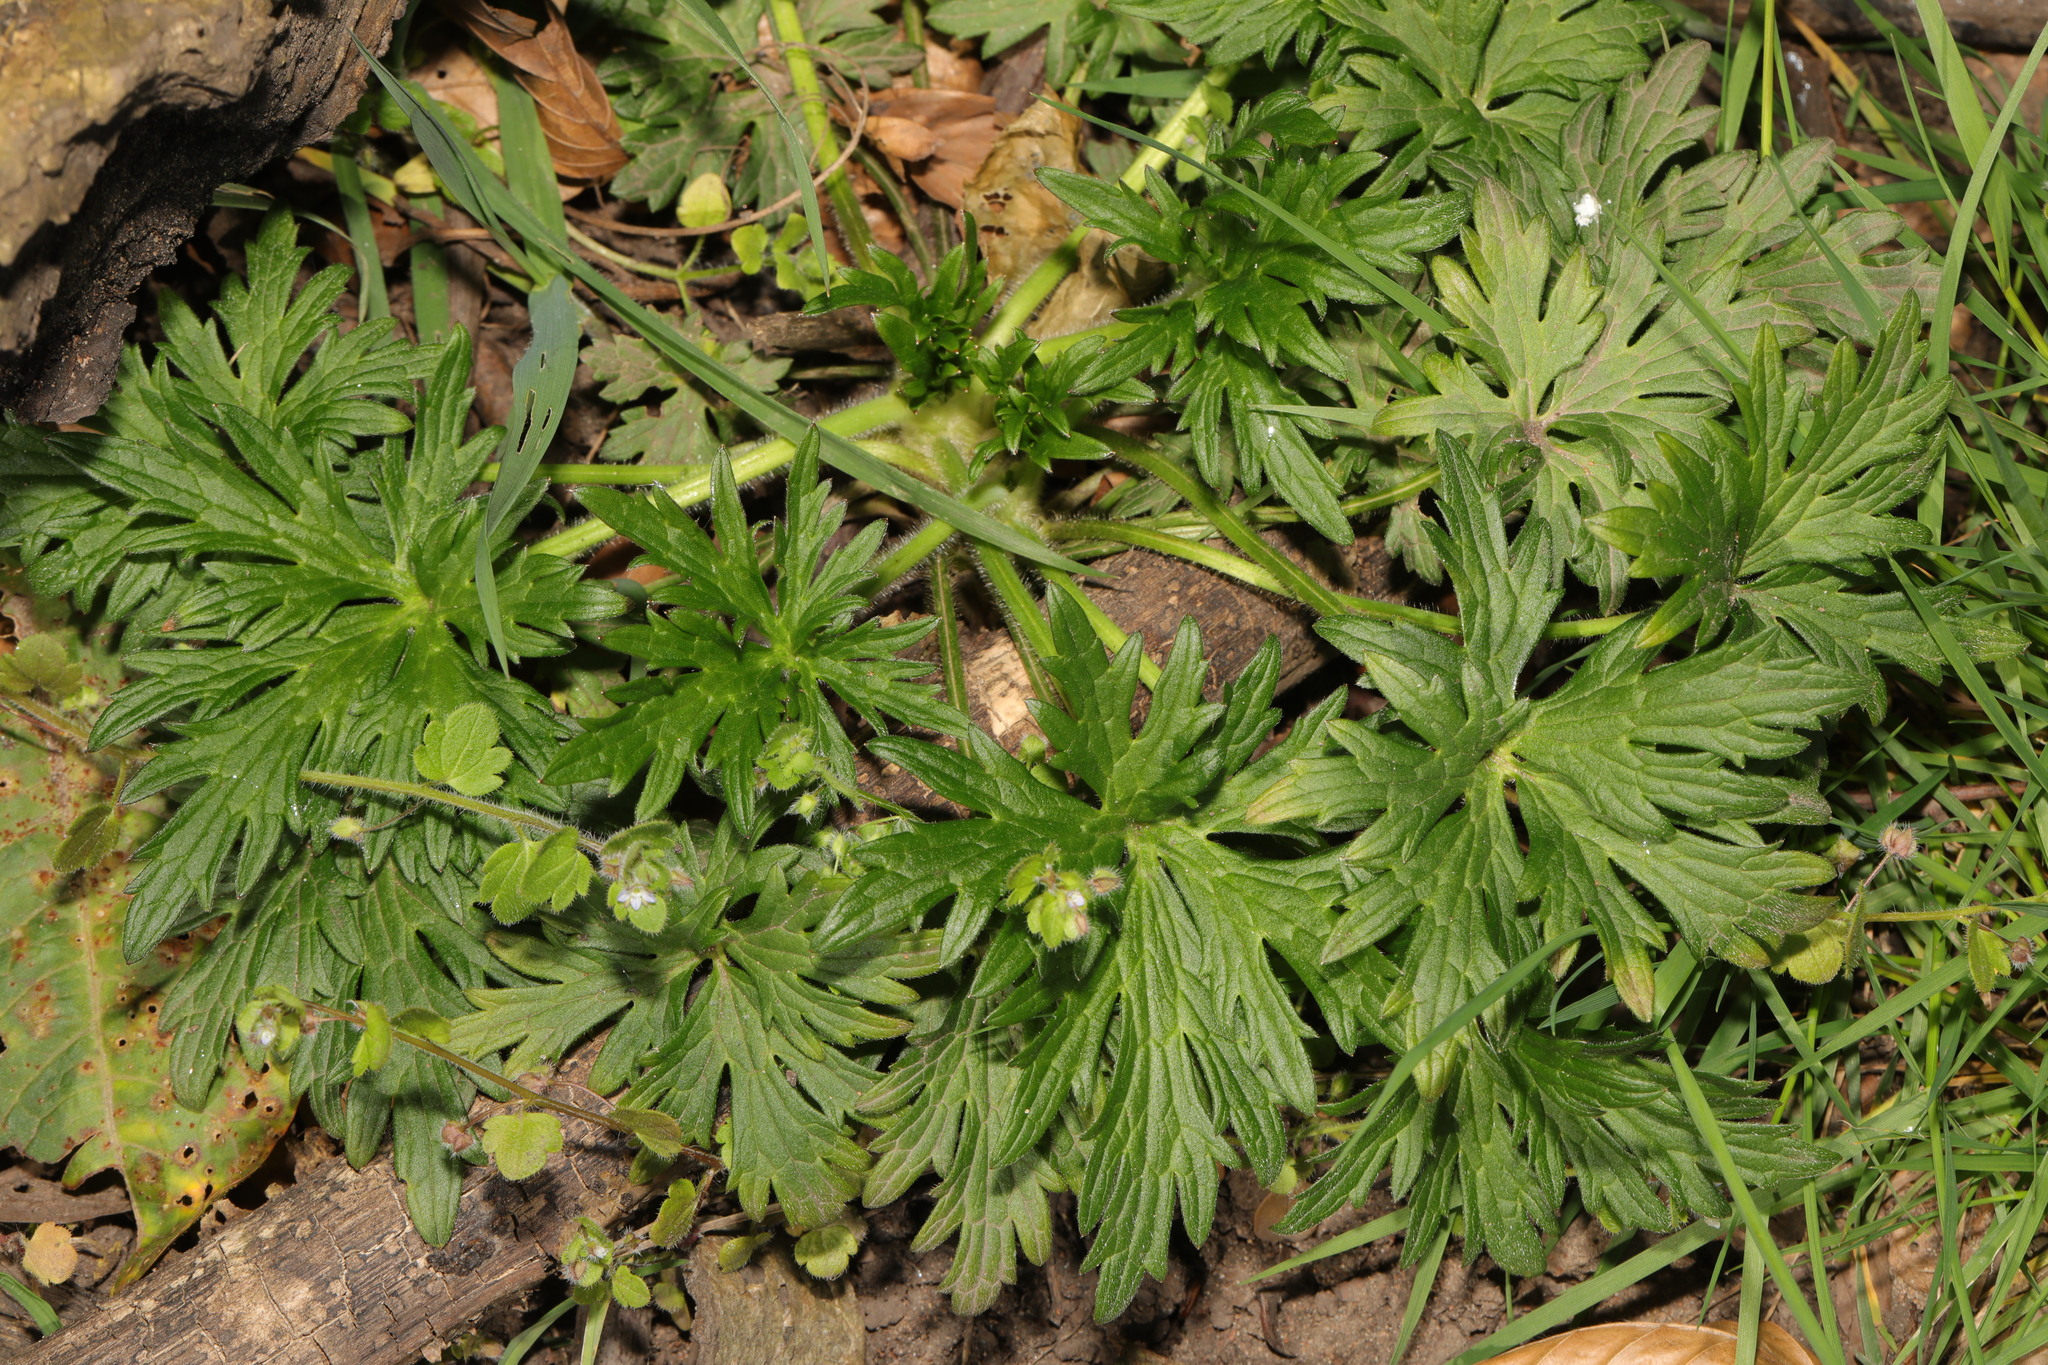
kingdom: Plantae
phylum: Tracheophyta
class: Magnoliopsida
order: Ranunculales
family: Ranunculaceae
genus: Ranunculus
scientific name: Ranunculus acris
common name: Meadow buttercup
